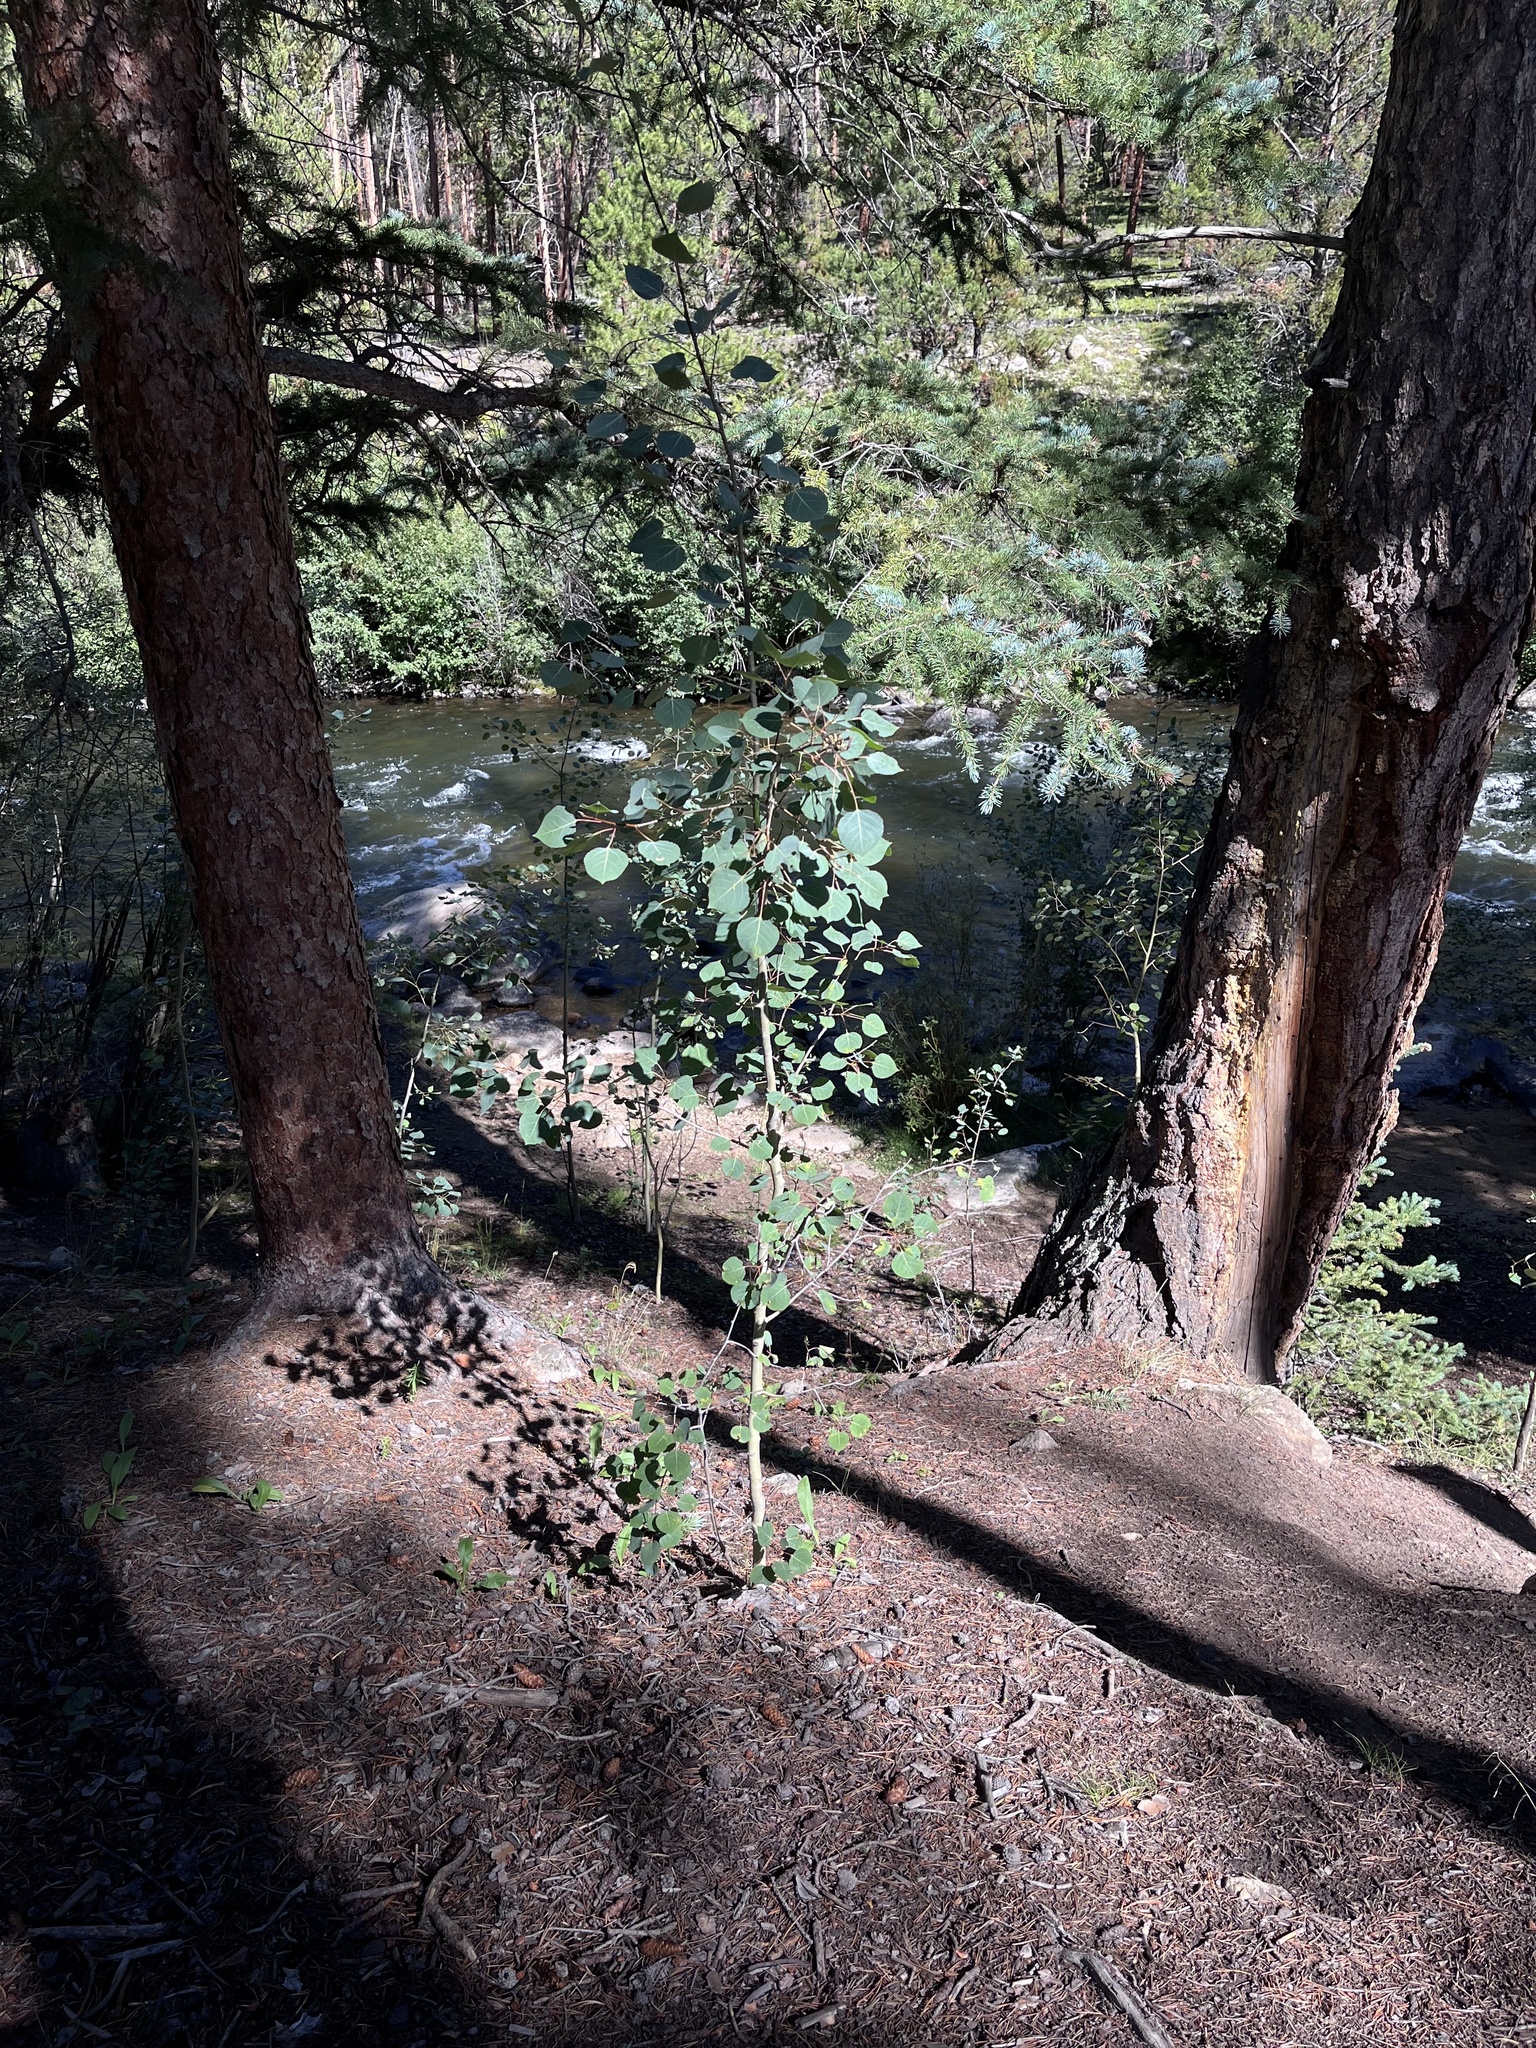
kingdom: Plantae
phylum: Tracheophyta
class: Magnoliopsida
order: Malpighiales
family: Salicaceae
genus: Populus
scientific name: Populus tremuloides
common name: Quaking aspen
